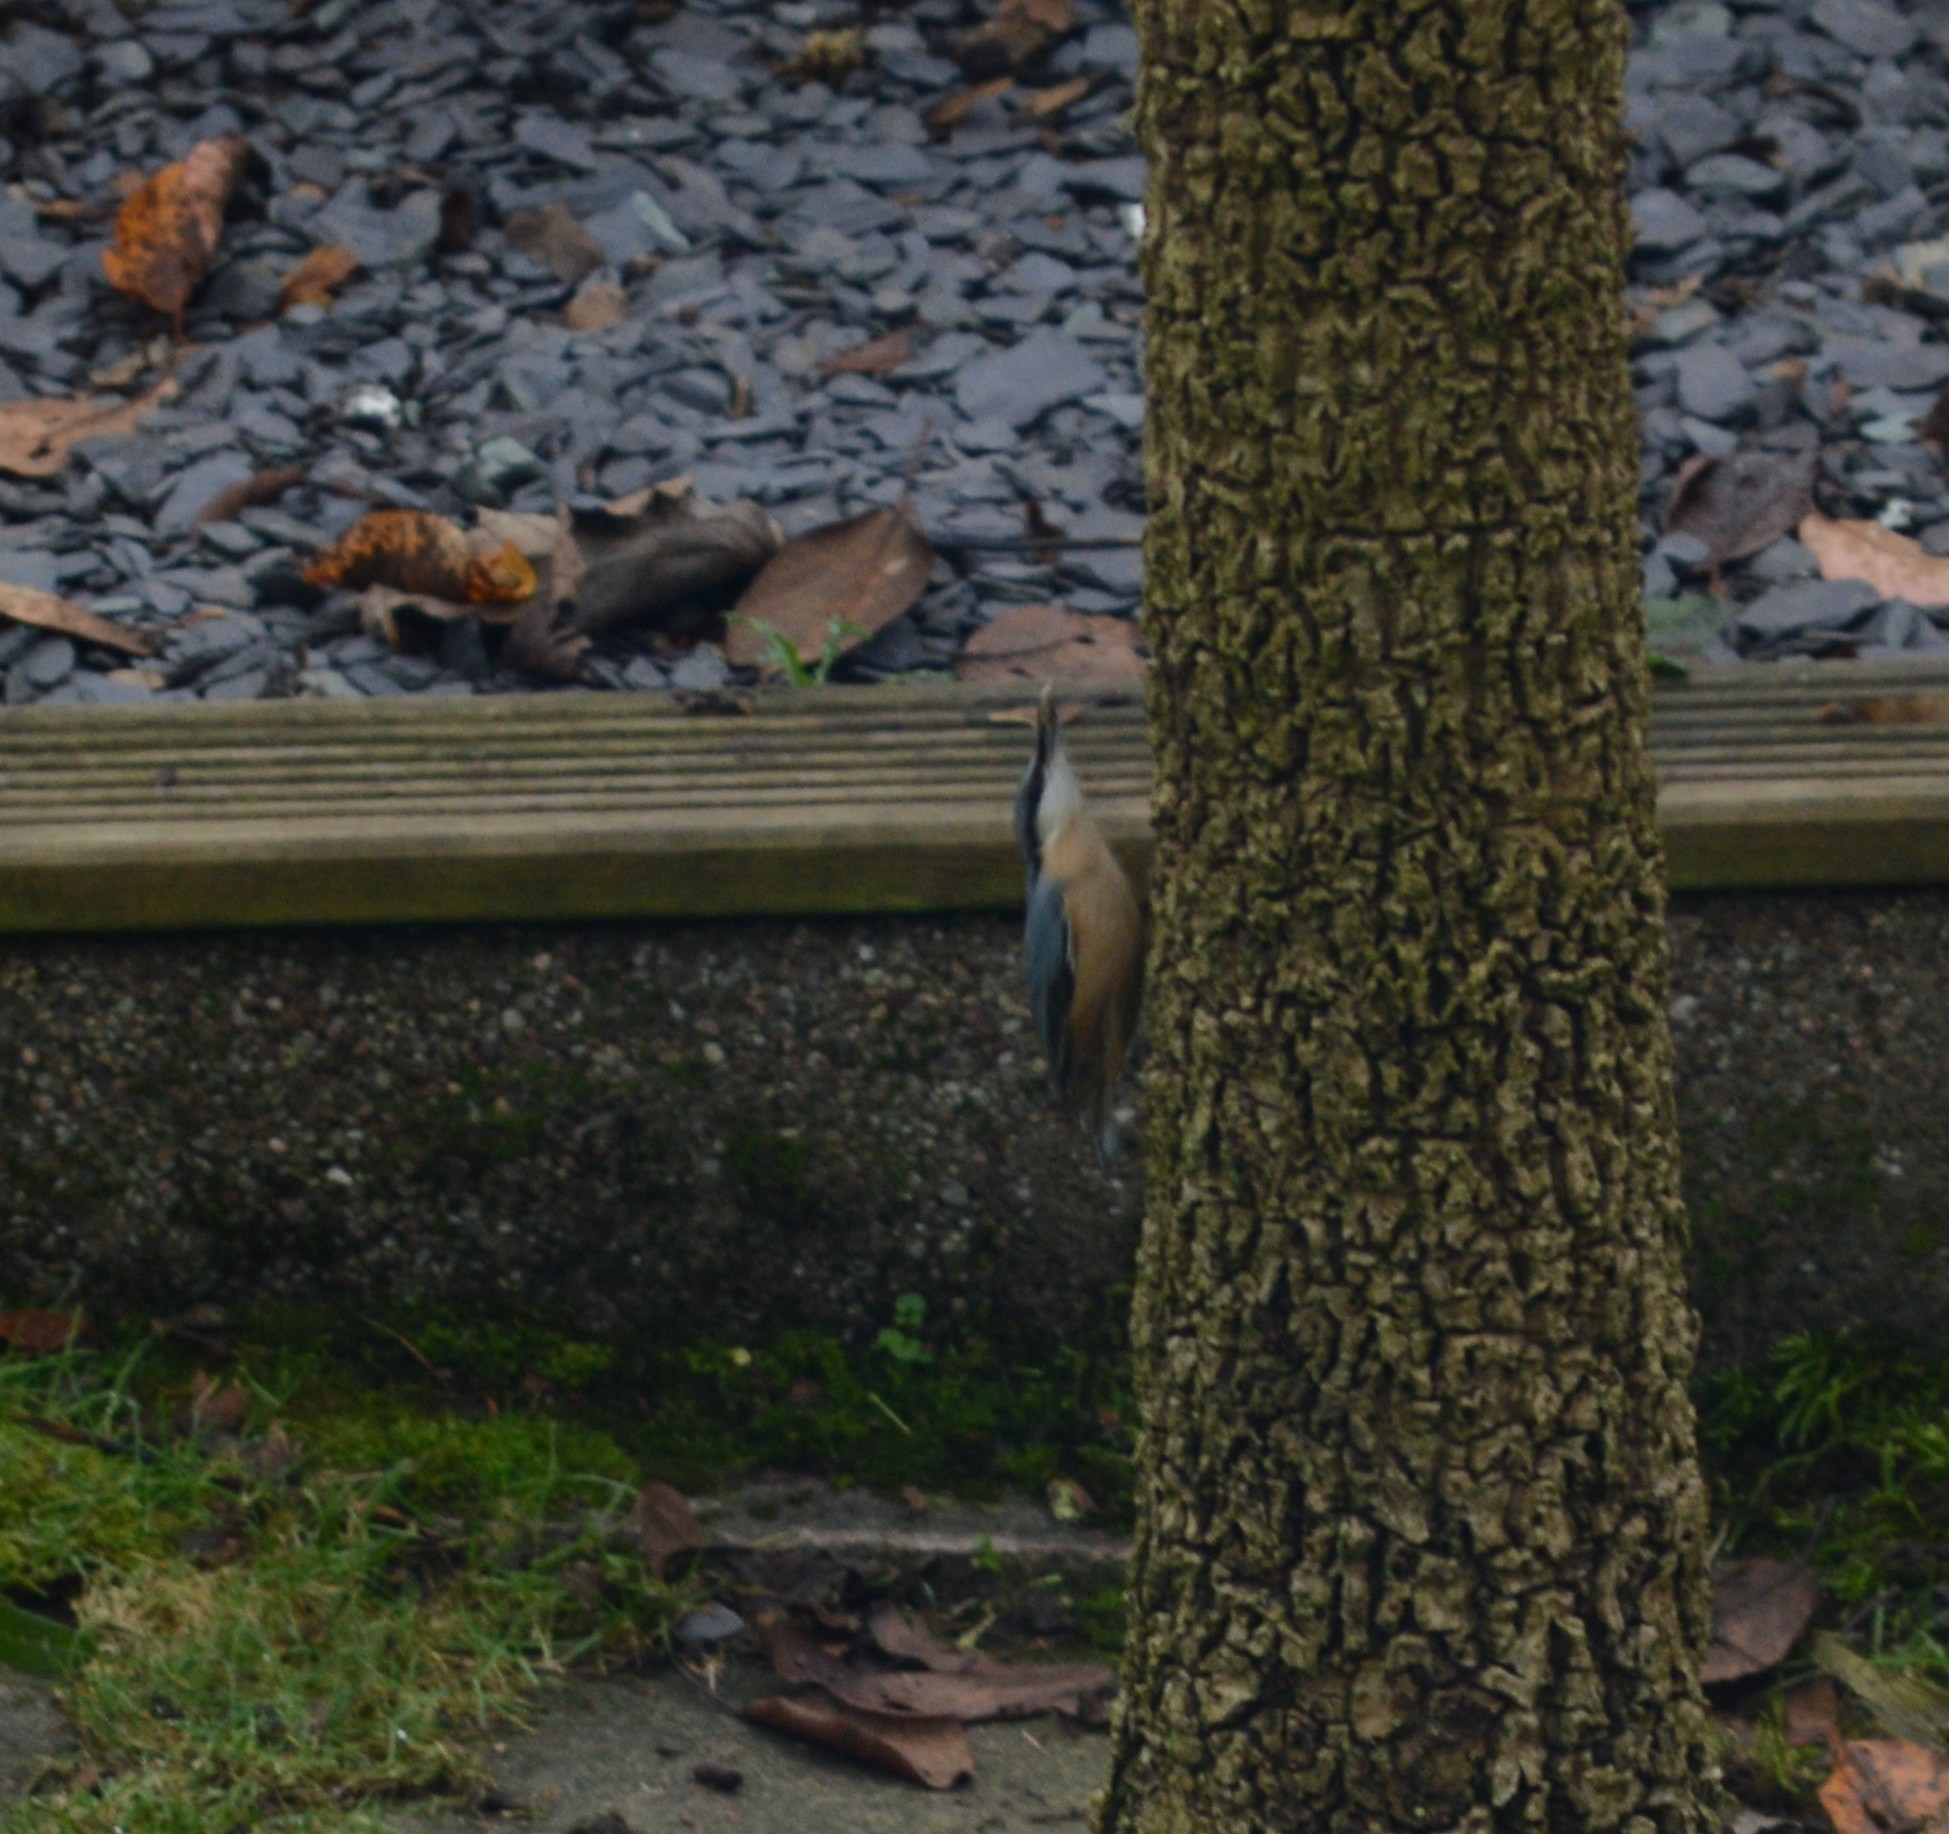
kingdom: Animalia
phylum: Chordata
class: Aves
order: Passeriformes
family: Sittidae
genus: Sitta
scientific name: Sitta europaea
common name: Eurasian nuthatch
